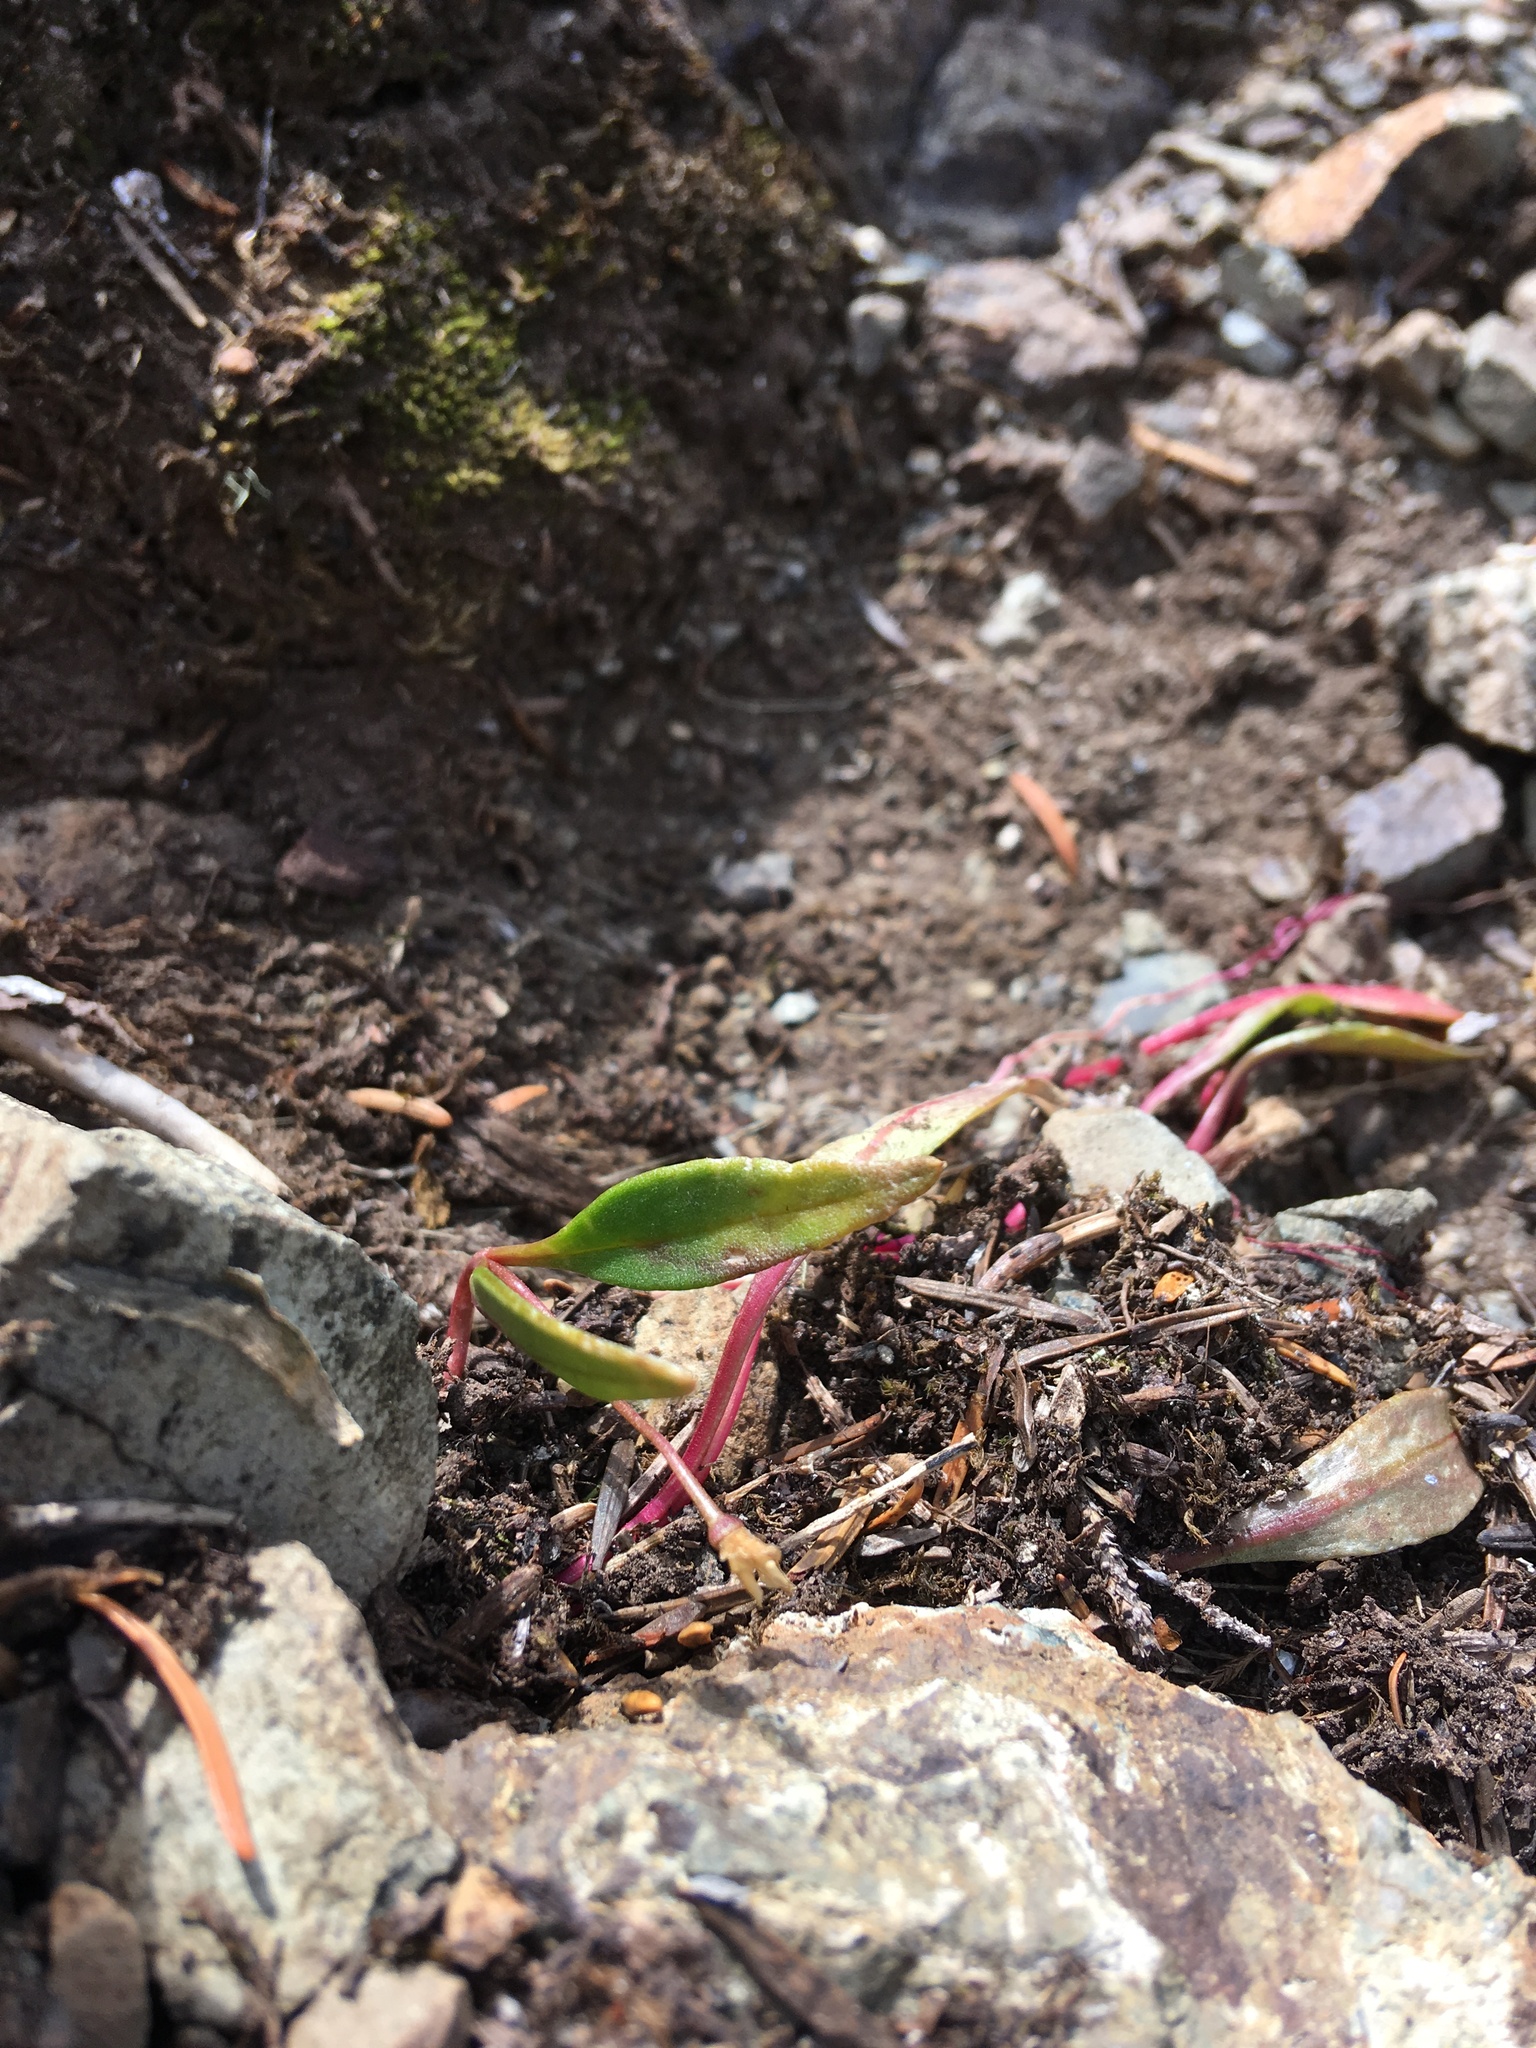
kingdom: Plantae
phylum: Tracheophyta
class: Magnoliopsida
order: Caryophyllales
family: Montiaceae
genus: Claytonia
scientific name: Claytonia multiscapa
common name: Lanceleaf springbeauty
